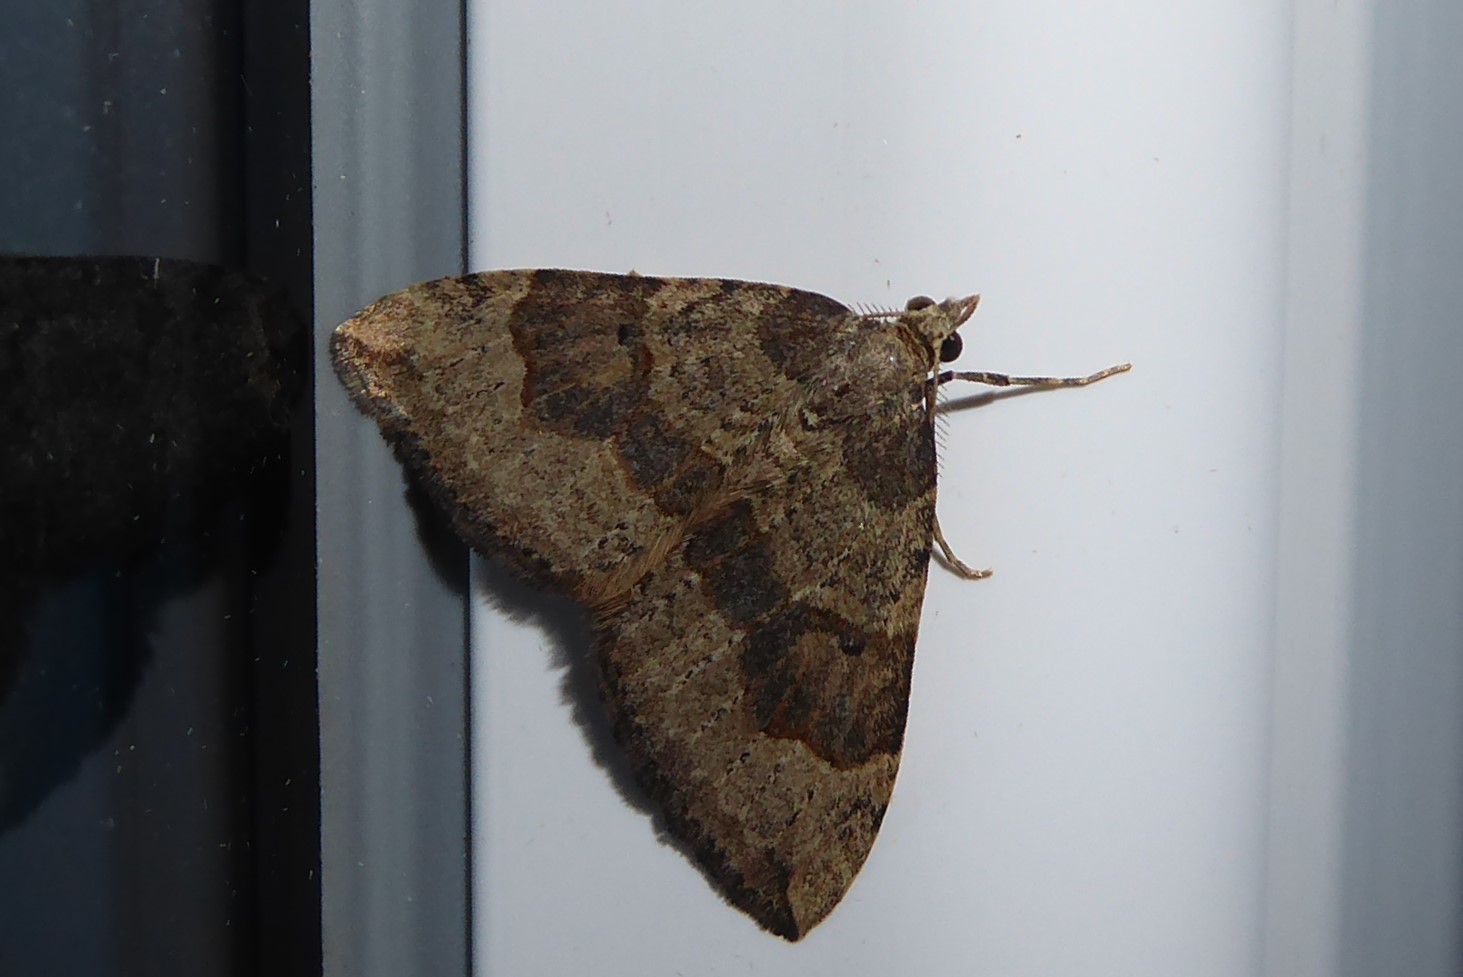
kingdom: Animalia
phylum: Arthropoda
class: Insecta
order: Lepidoptera
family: Geometridae
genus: Epyaxa
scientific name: Epyaxa rosearia
